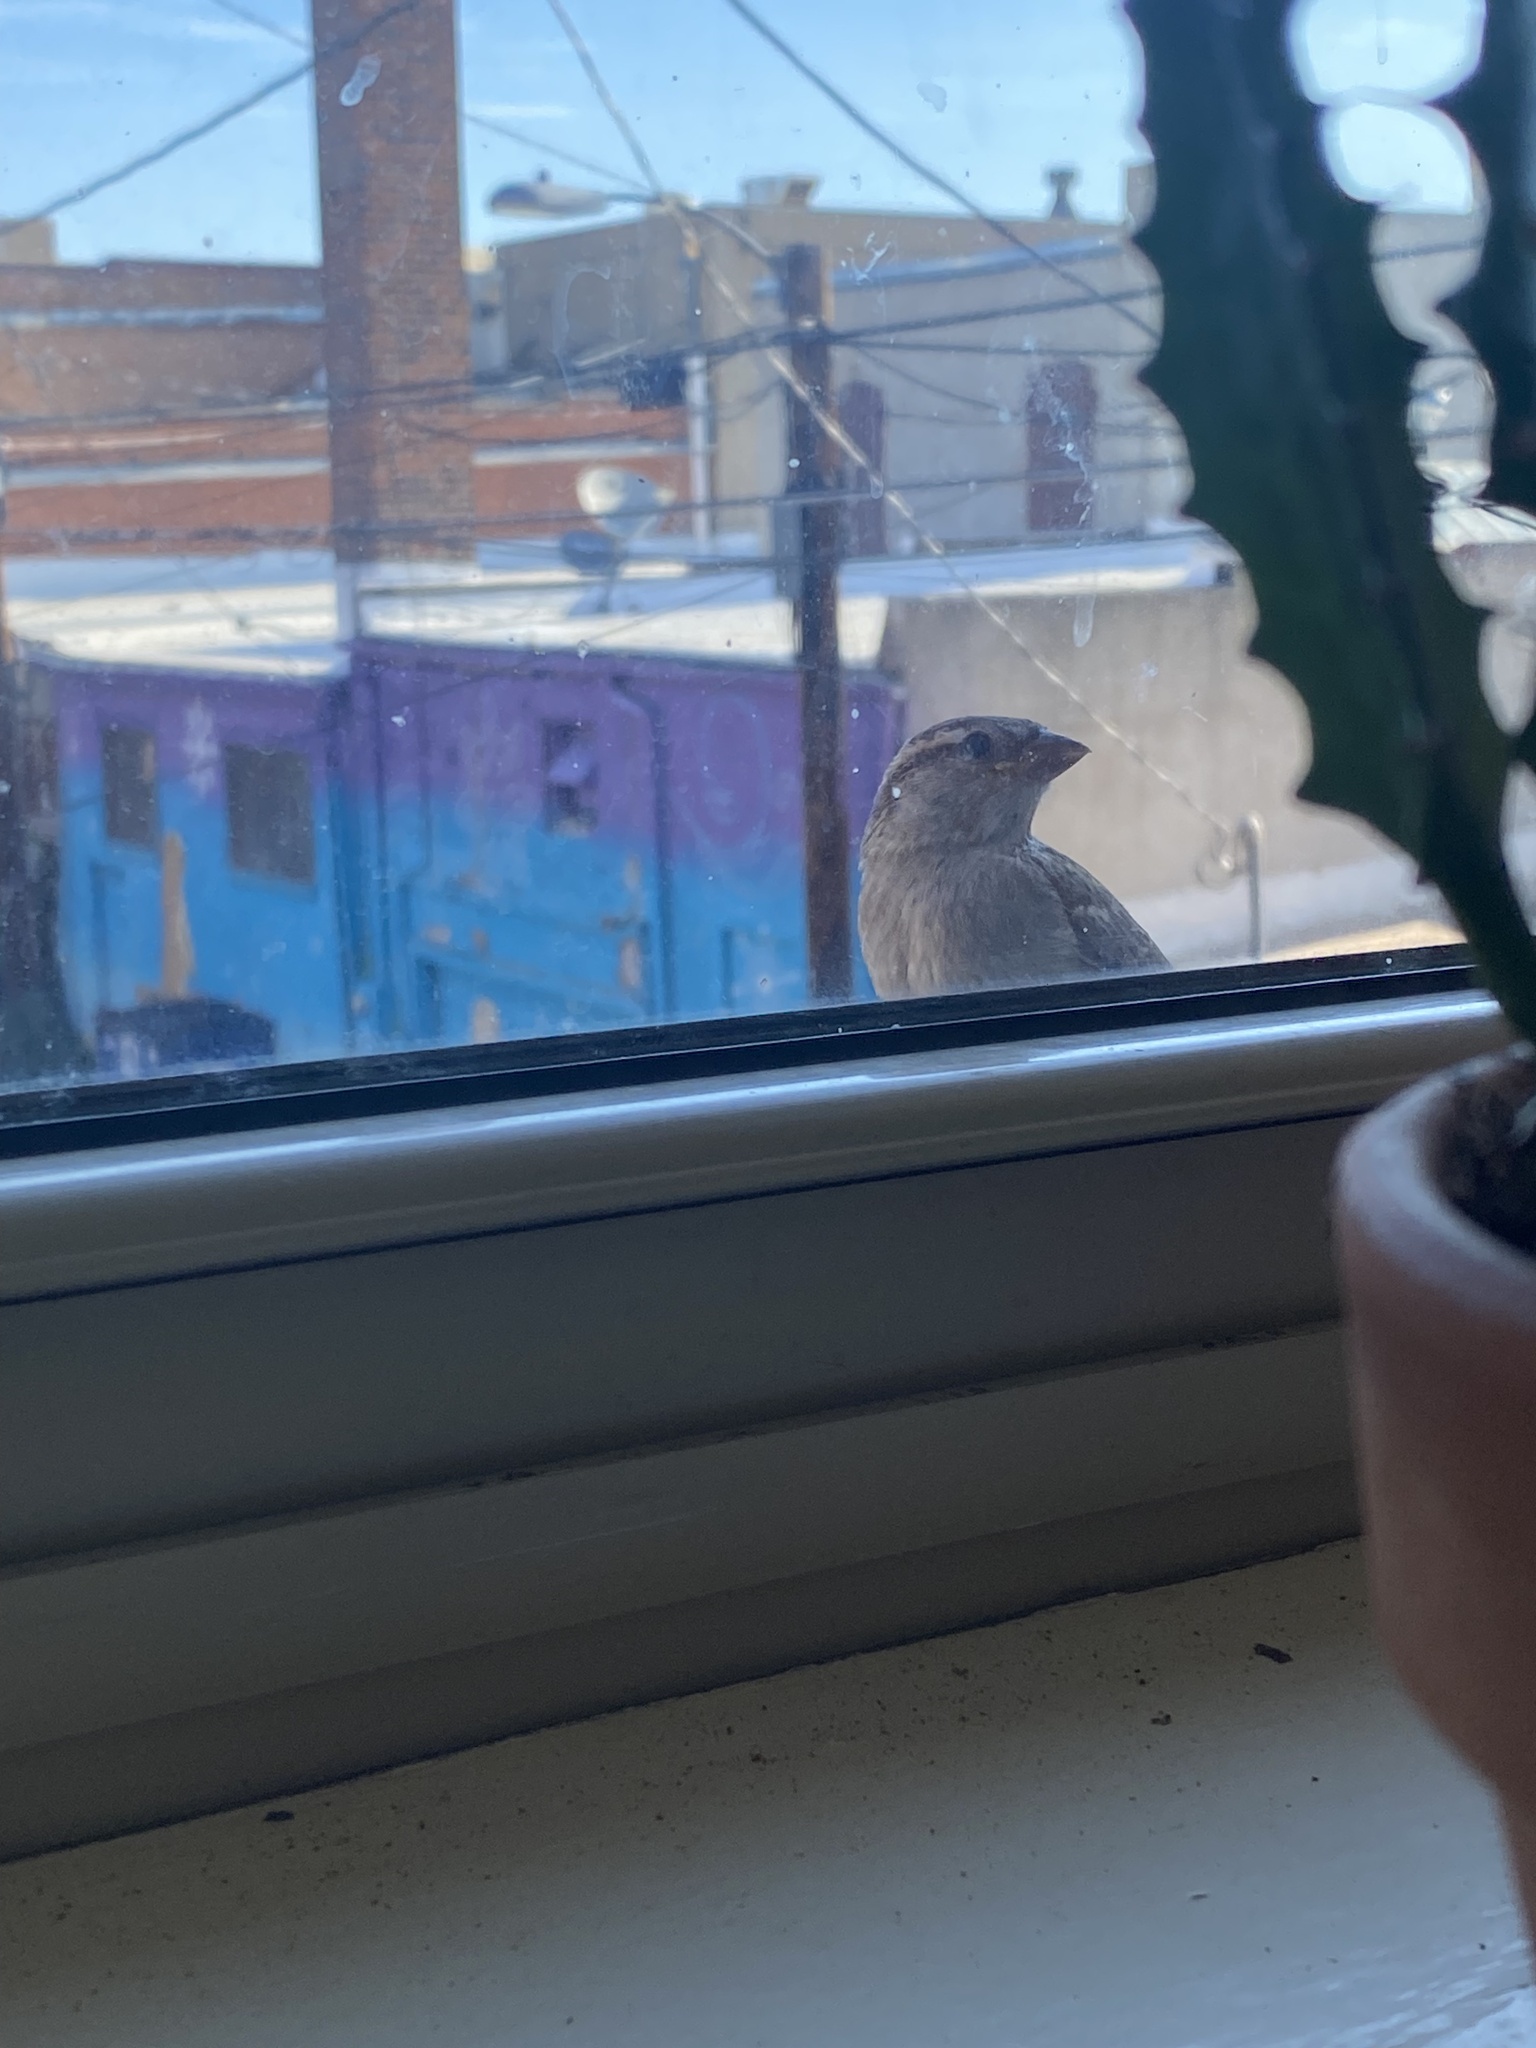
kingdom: Animalia
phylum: Chordata
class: Aves
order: Passeriformes
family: Passeridae
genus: Passer
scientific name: Passer domesticus
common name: House sparrow
